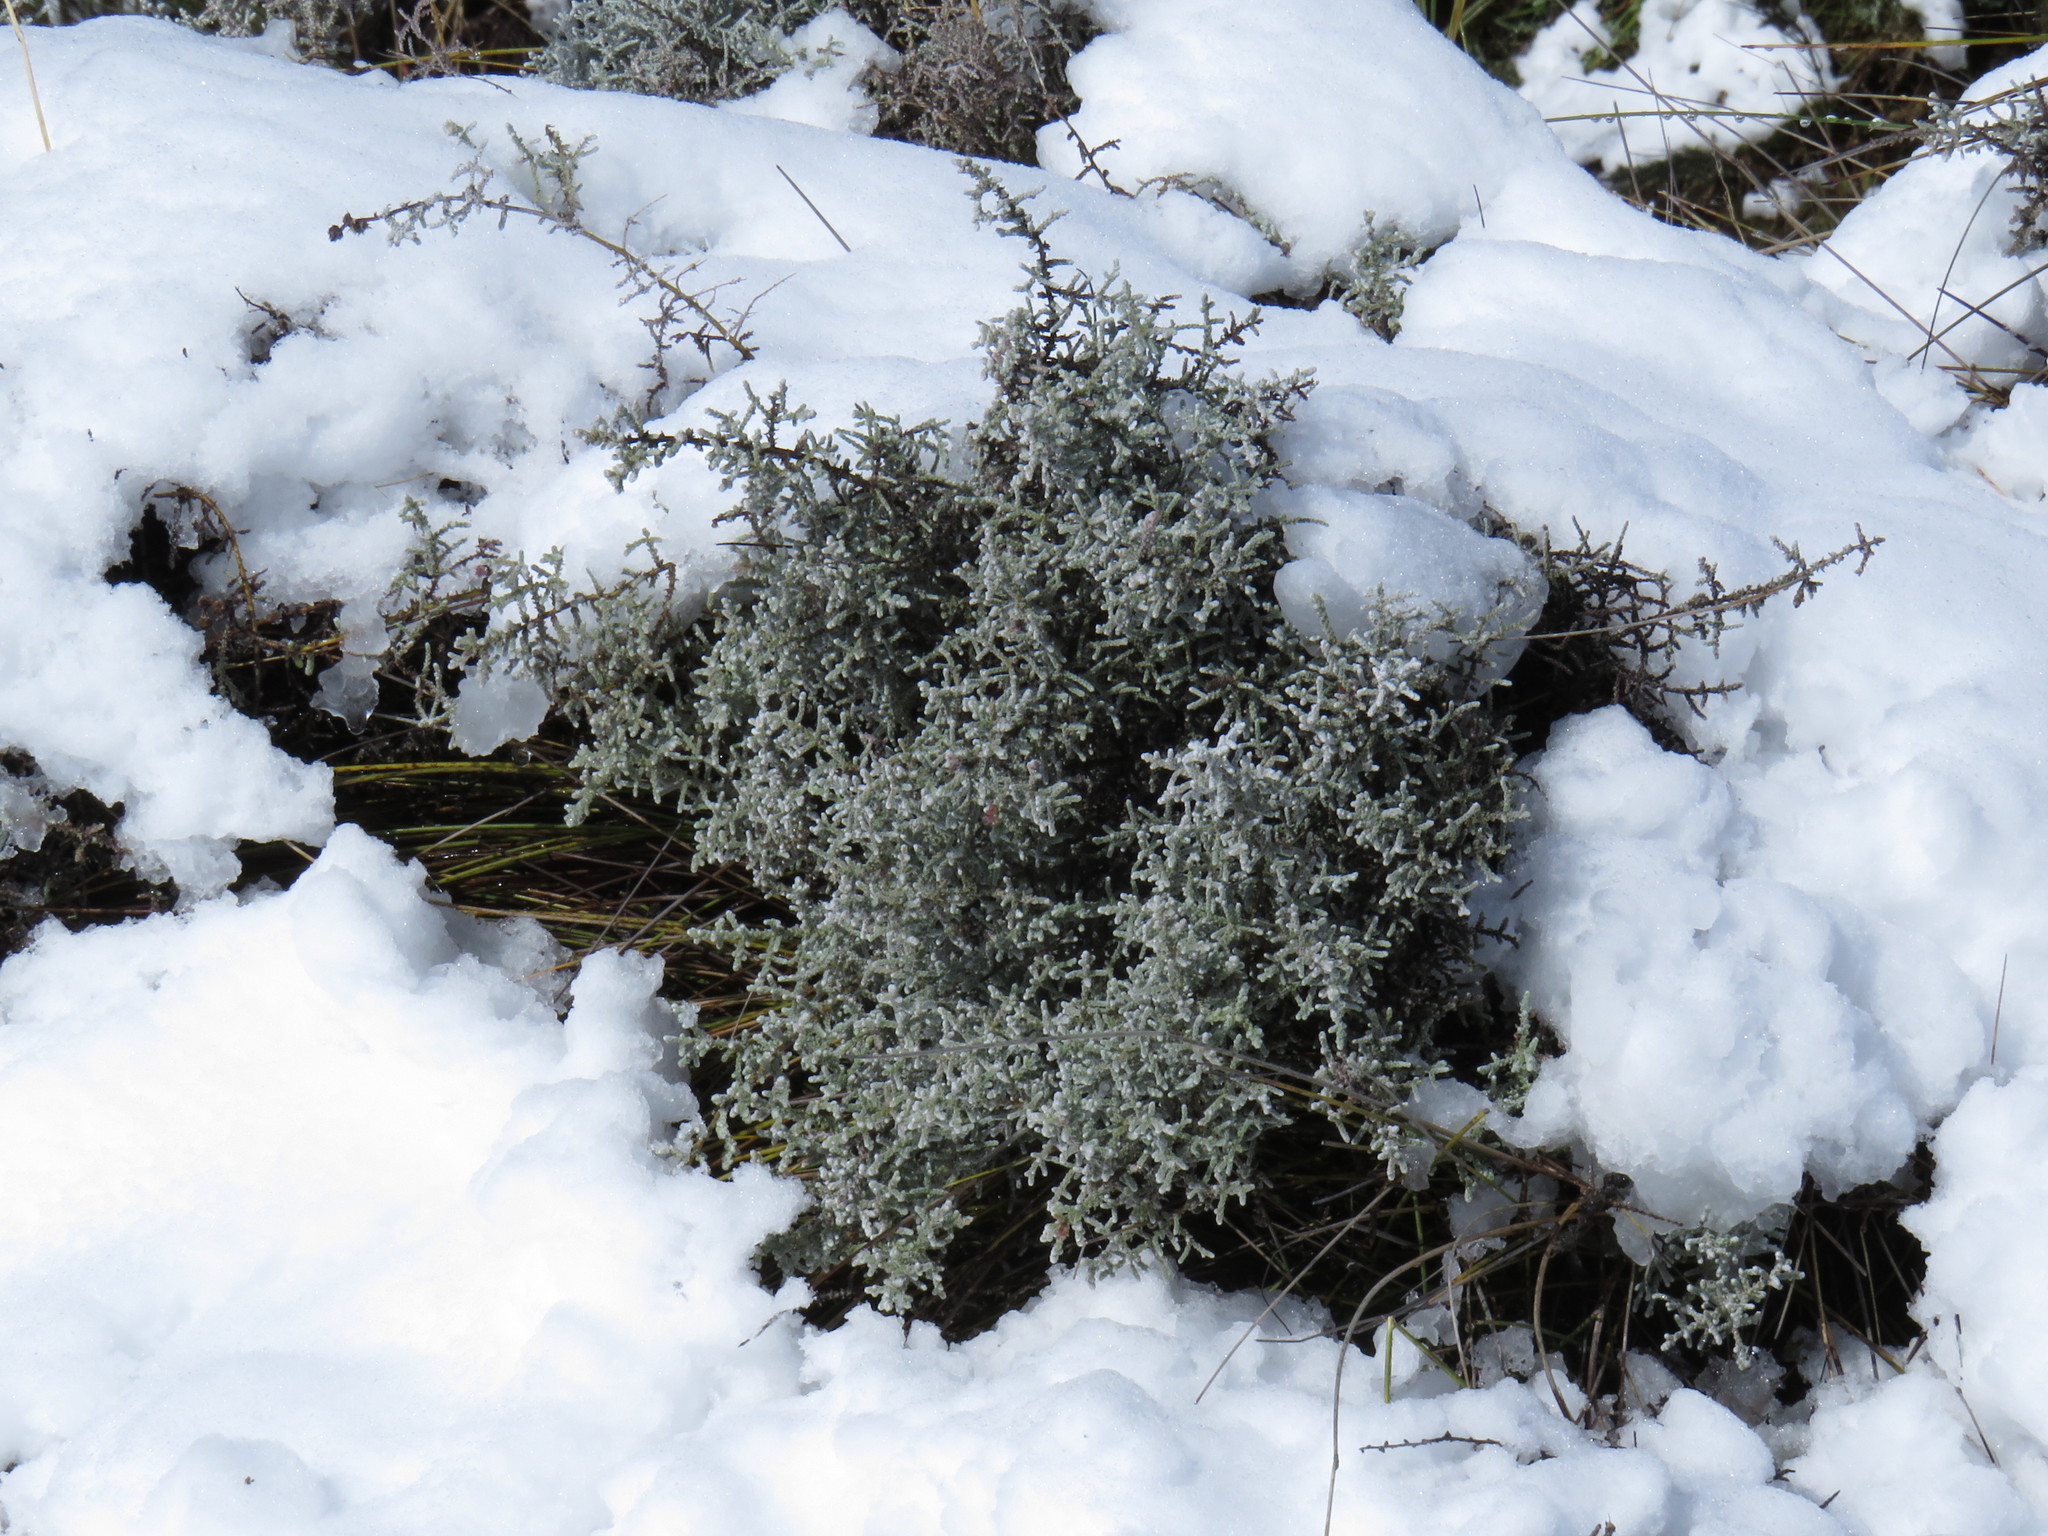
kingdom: Plantae
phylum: Tracheophyta
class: Magnoliopsida
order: Asterales
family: Asteraceae
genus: Seriphium
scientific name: Seriphium plumosum
